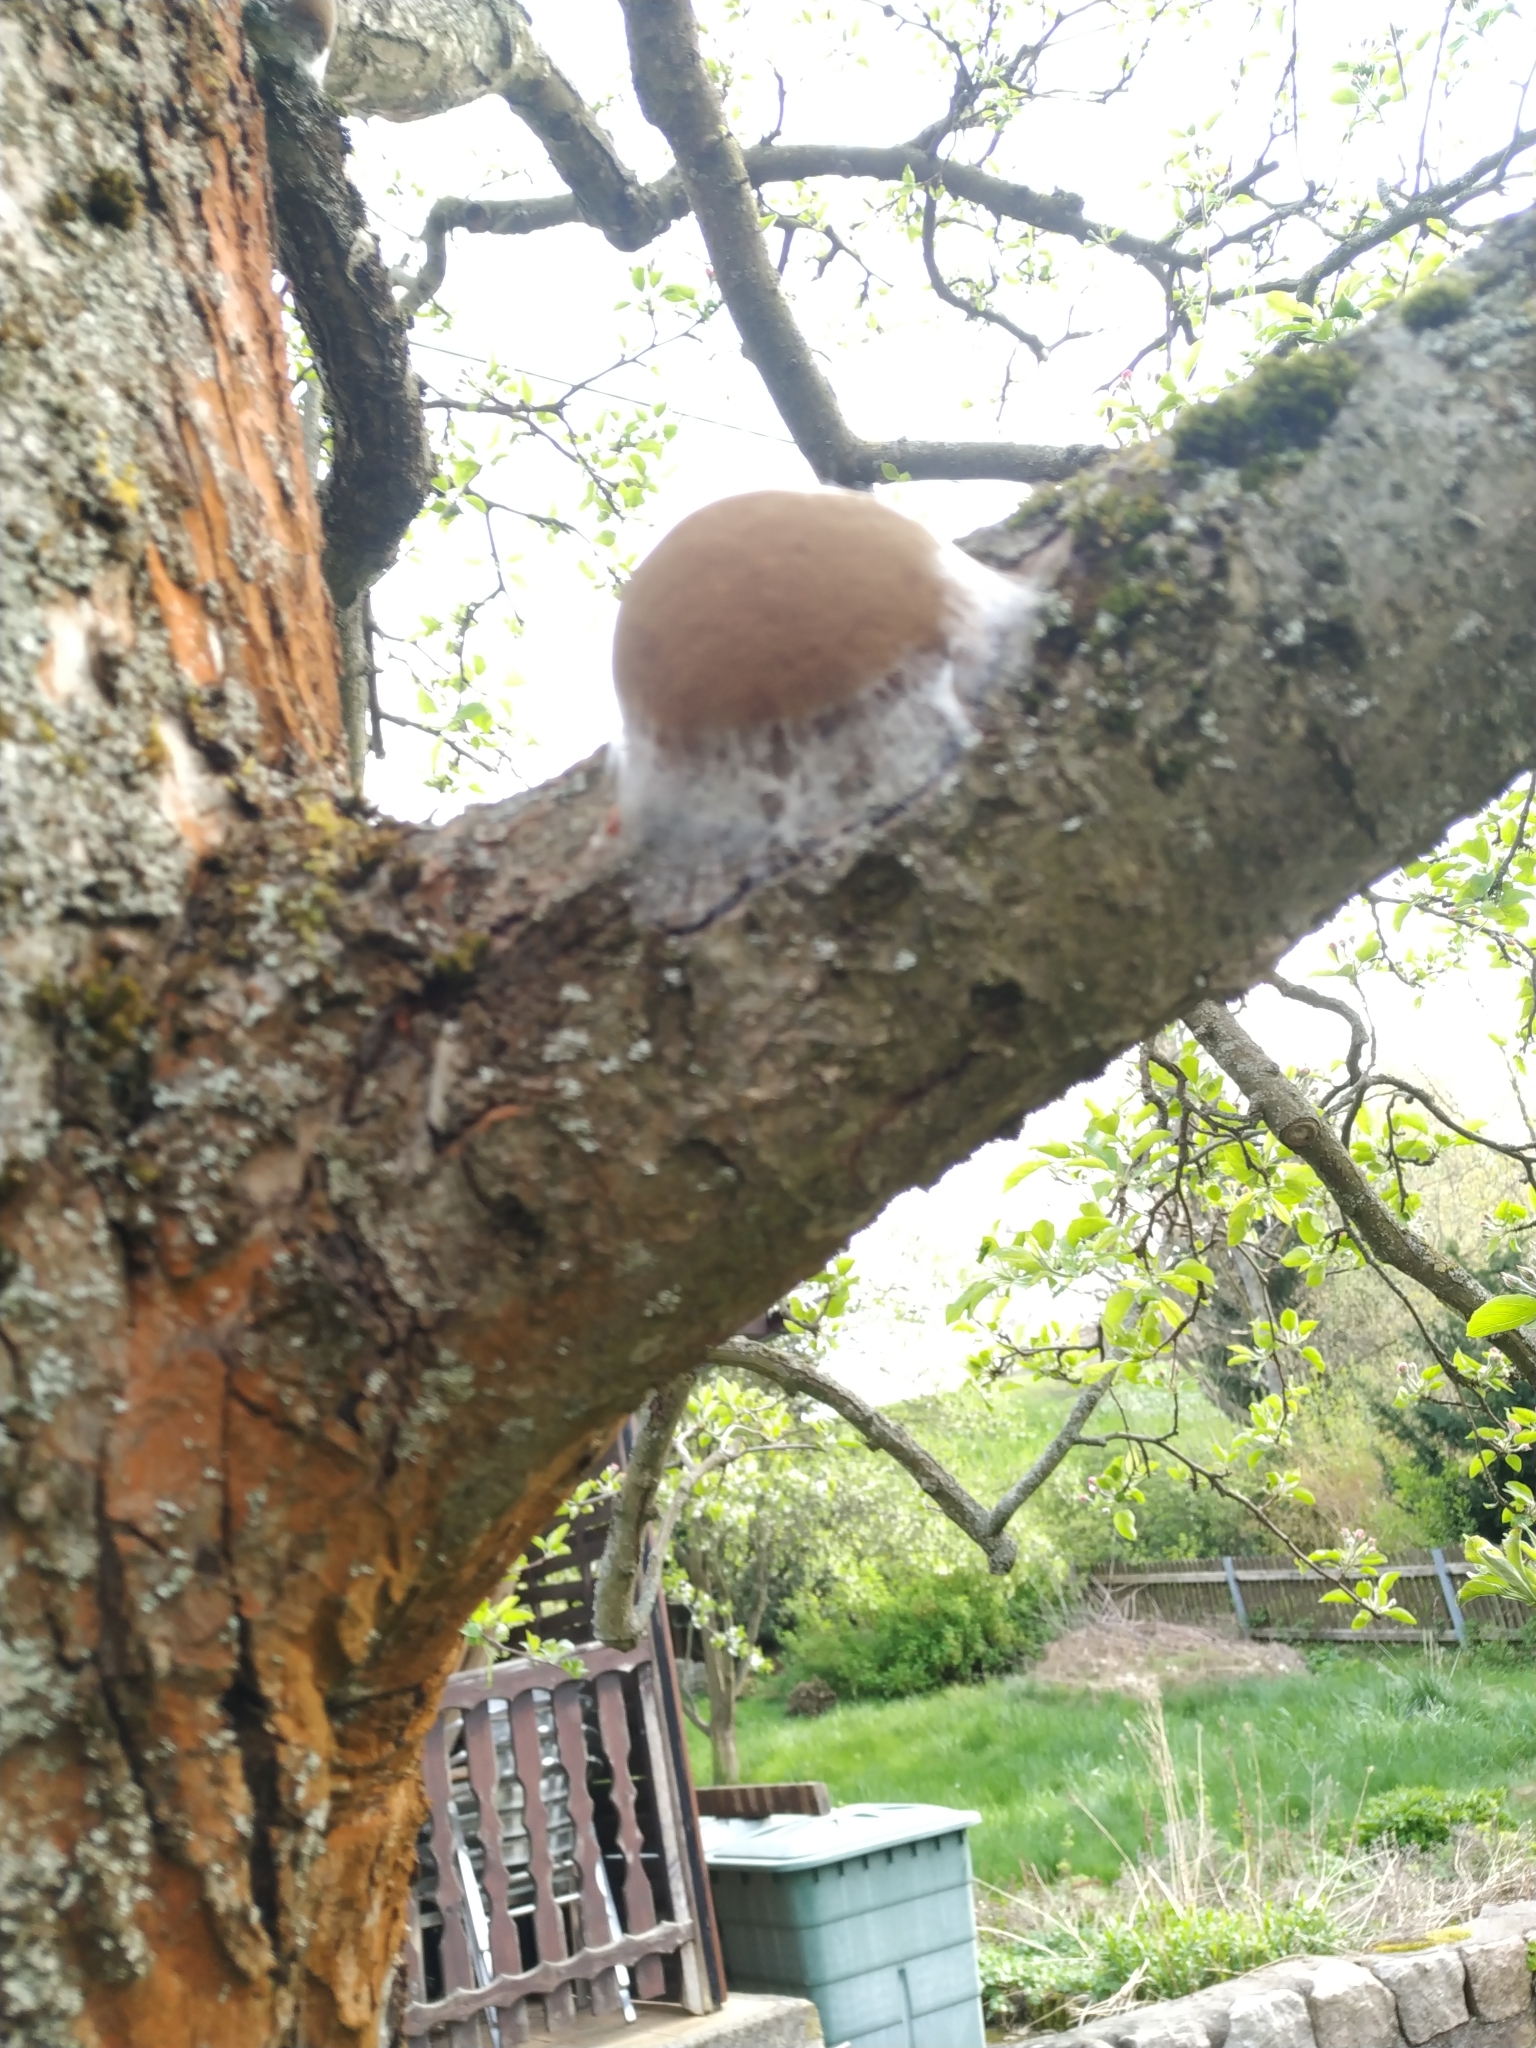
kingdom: Fungi
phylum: Basidiomycota
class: Agaricomycetes
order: Hymenochaetales
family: Hymenochaetaceae
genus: Phellinus
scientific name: Phellinus pomaceus
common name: Cushion bracket
